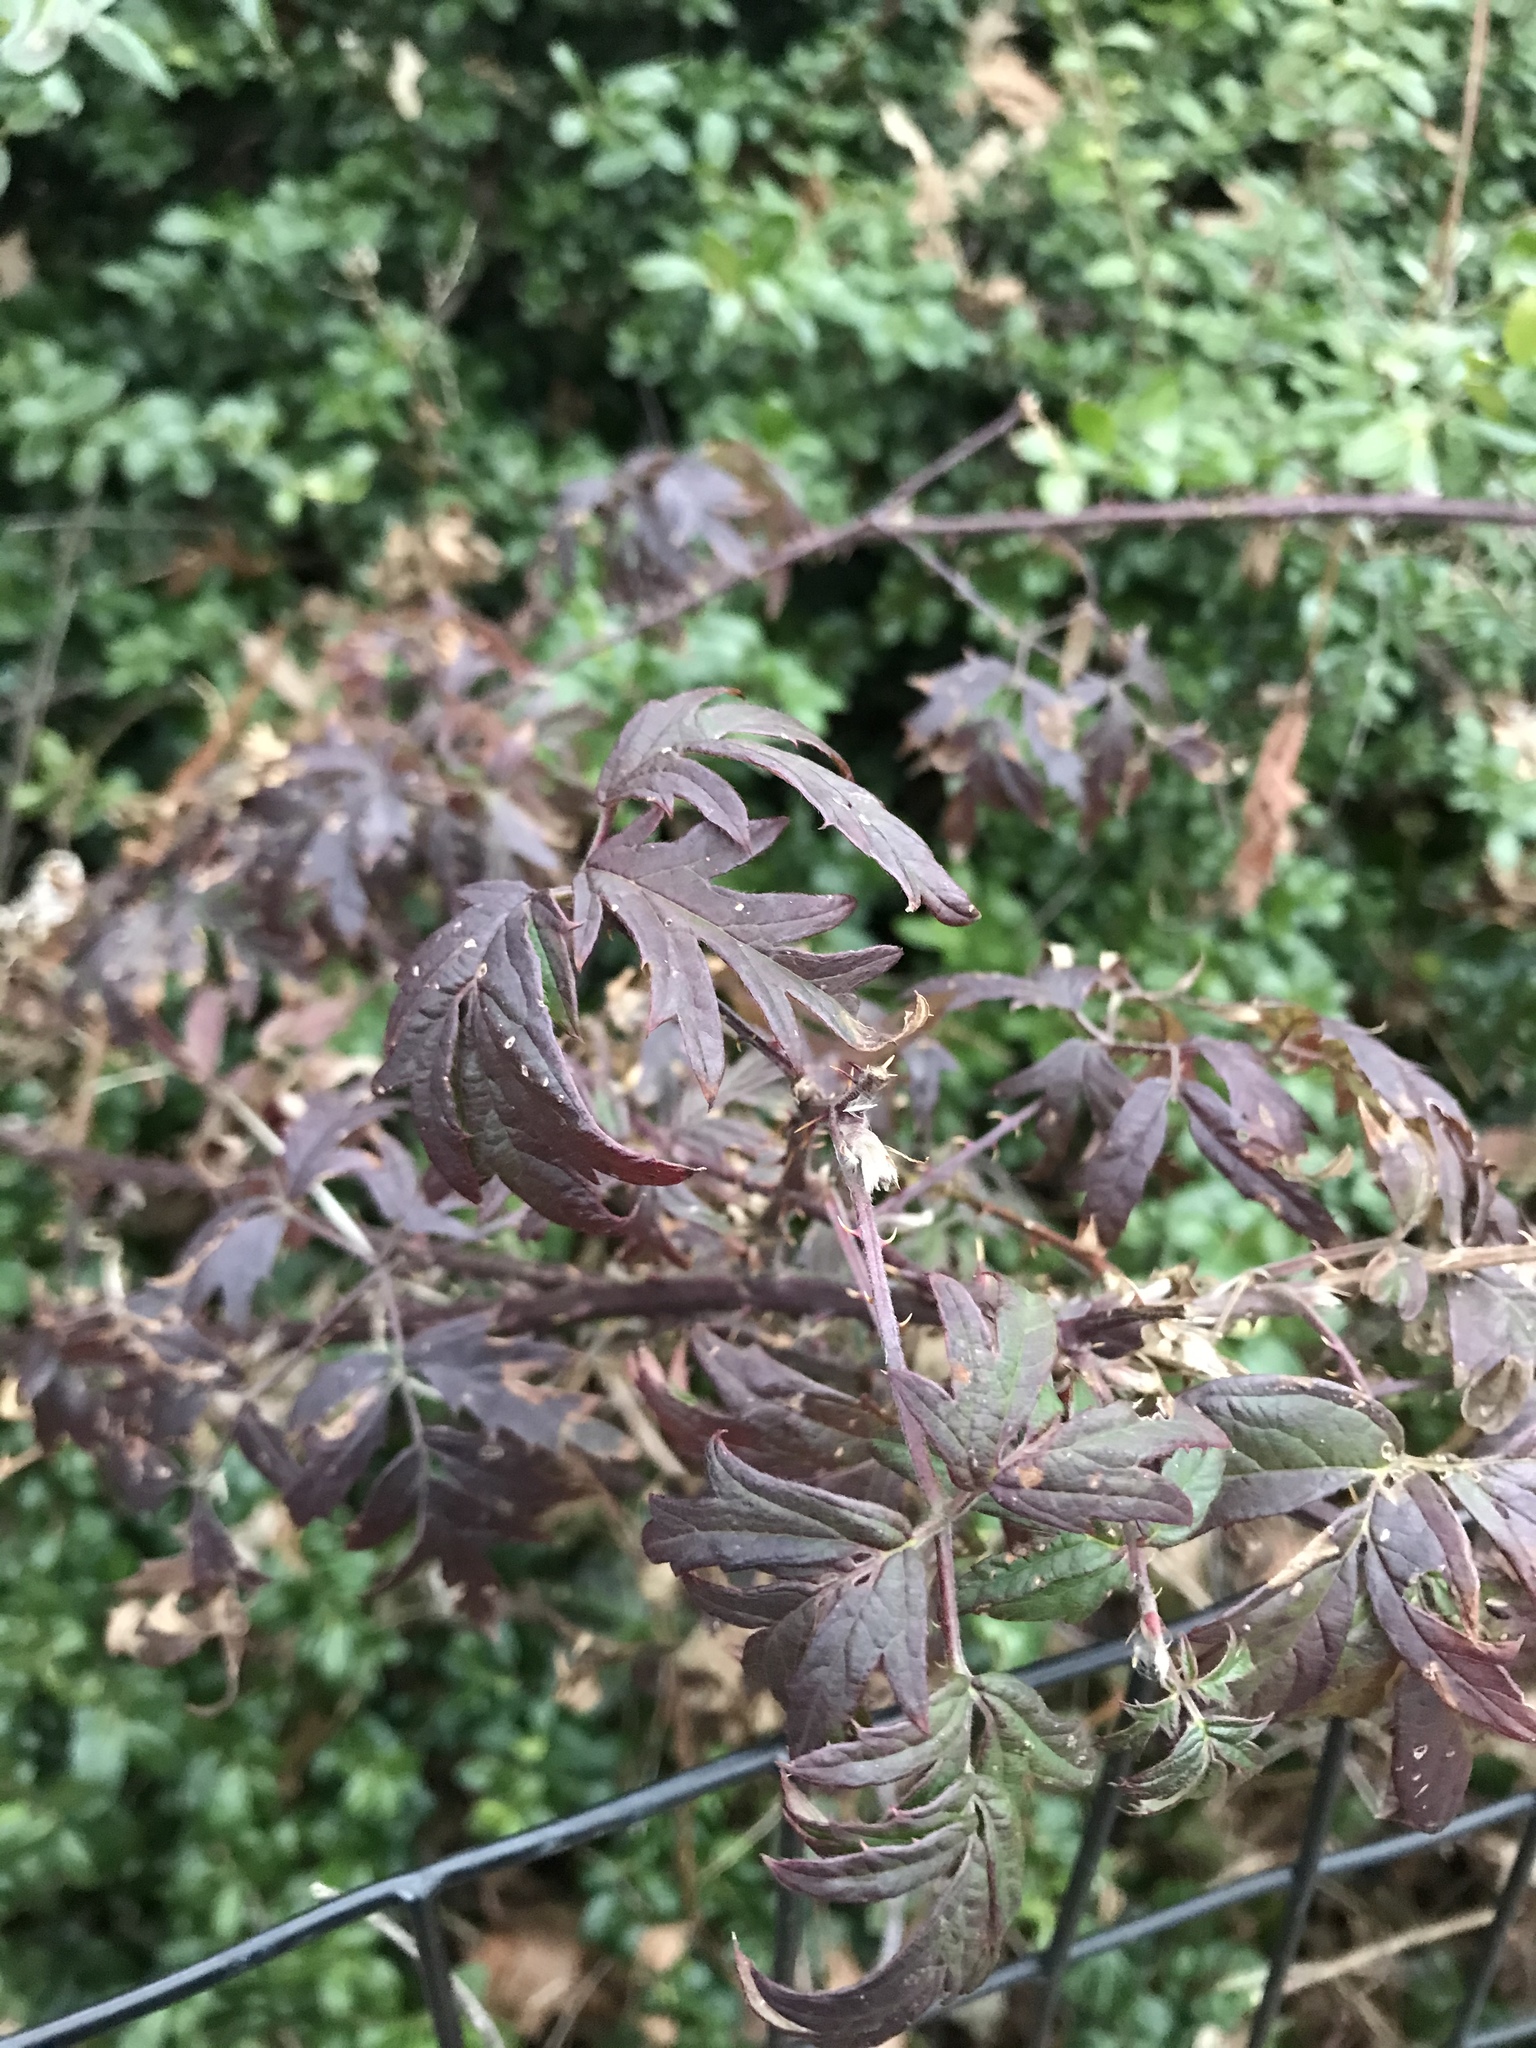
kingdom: Plantae
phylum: Tracheophyta
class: Magnoliopsida
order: Rosales
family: Rosaceae
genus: Rubus
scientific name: Rubus laciniatus
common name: Evergreen blackberry
